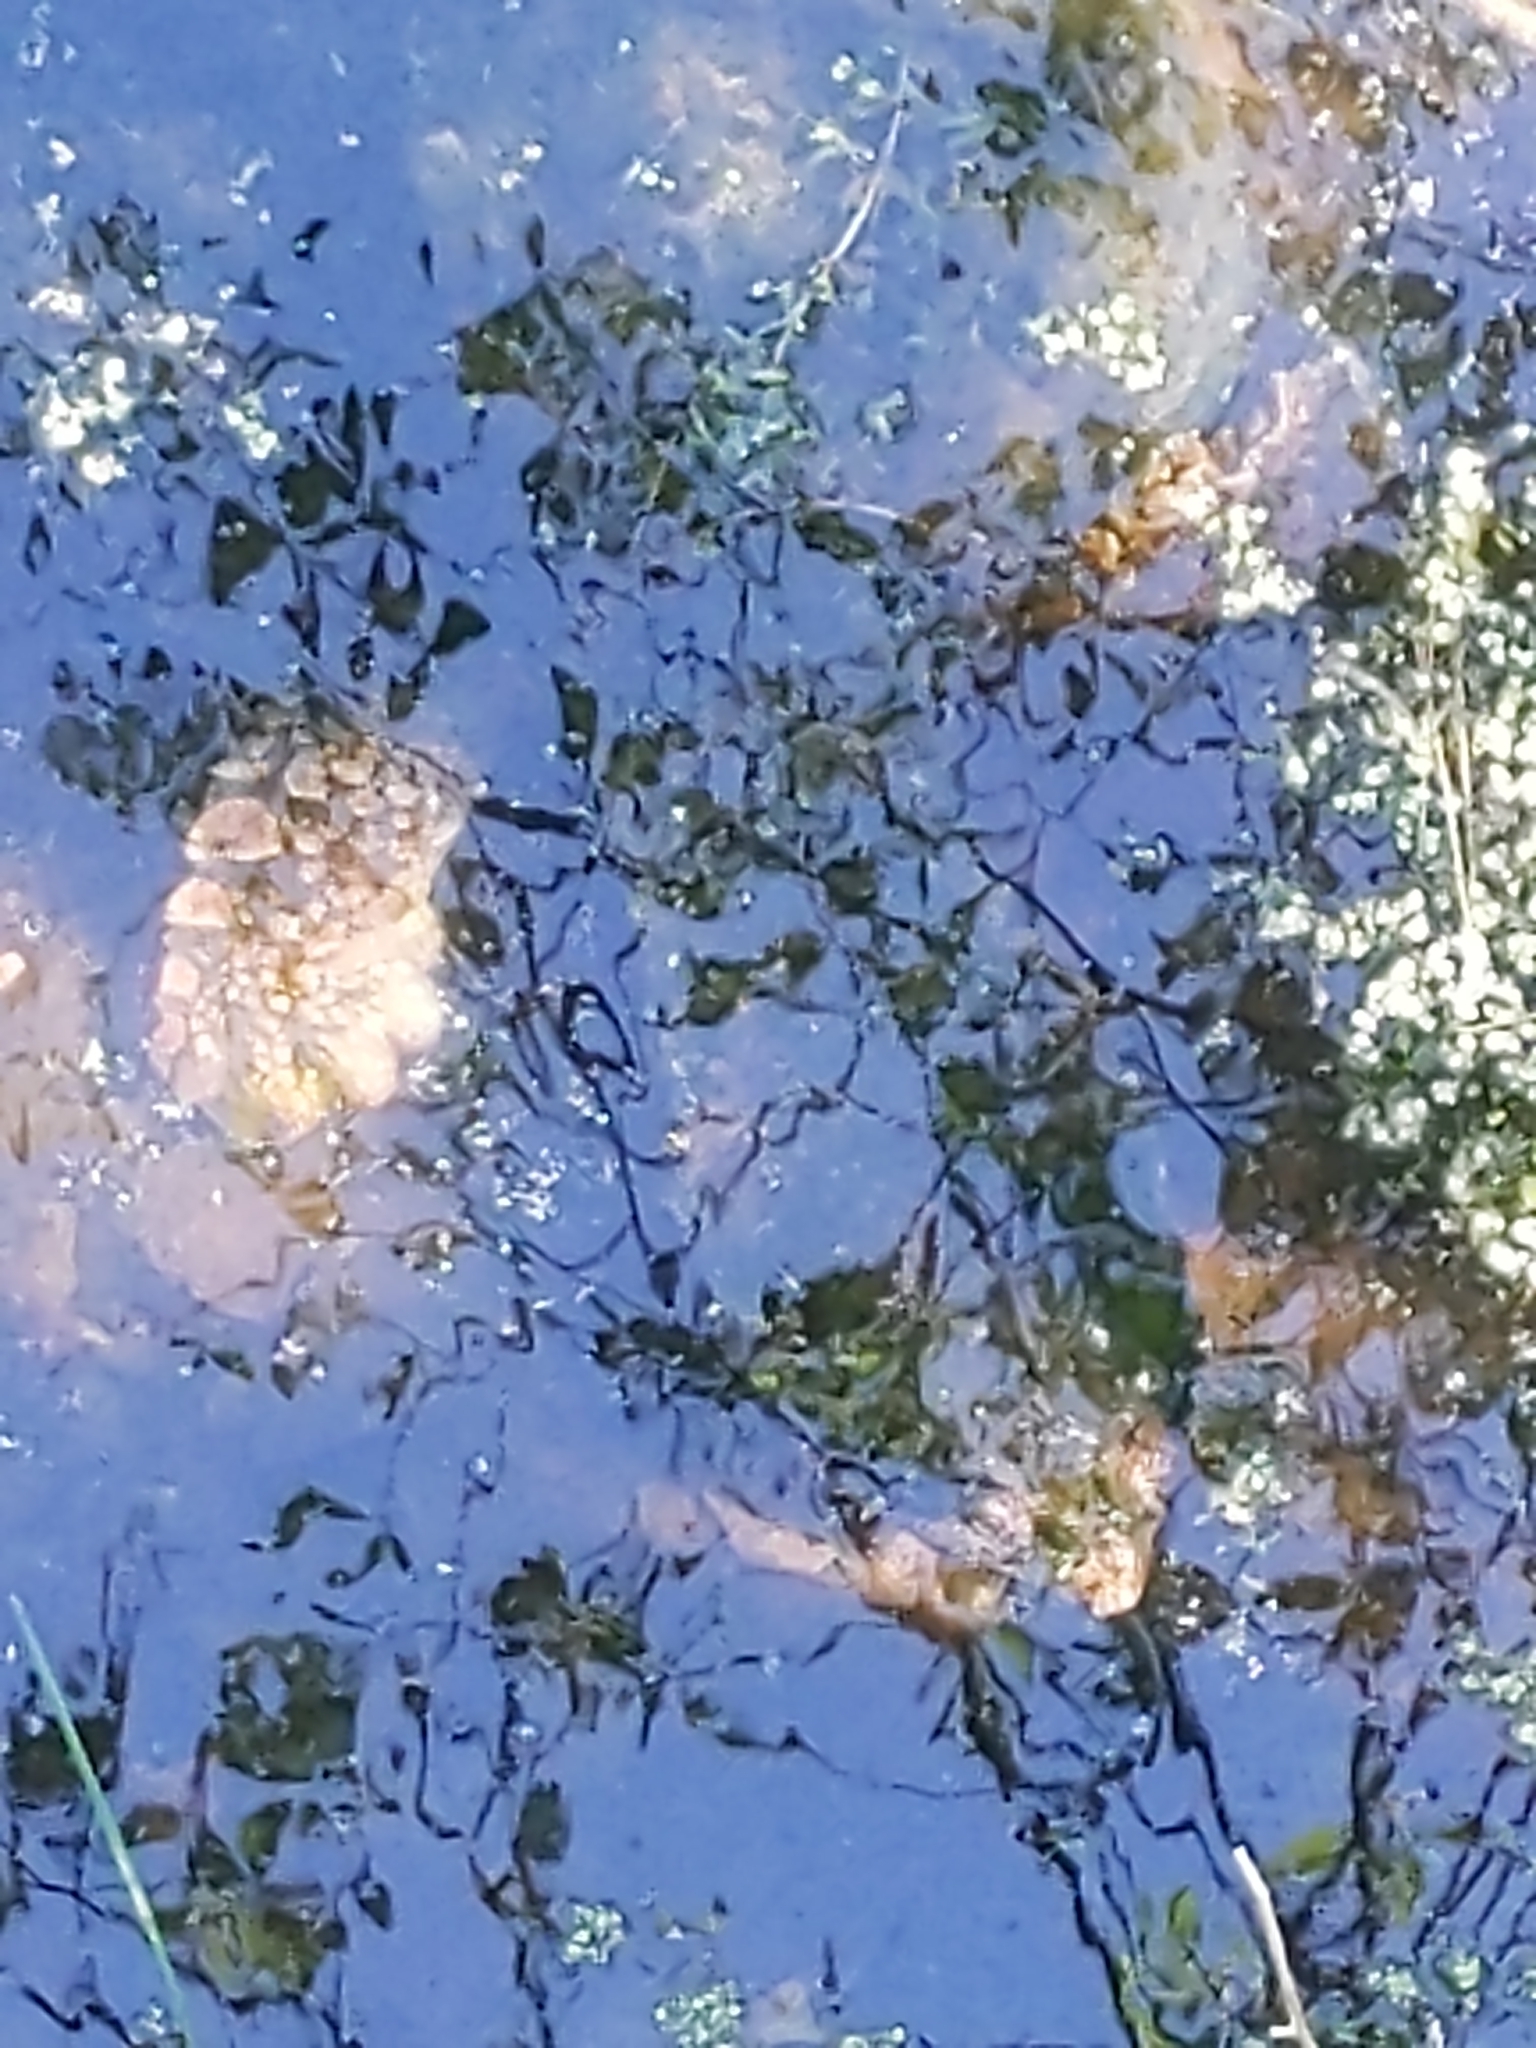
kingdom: Animalia
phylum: Chordata
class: Testudines
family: Chelydridae
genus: Chelydra
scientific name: Chelydra serpentina
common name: Common snapping turtle
